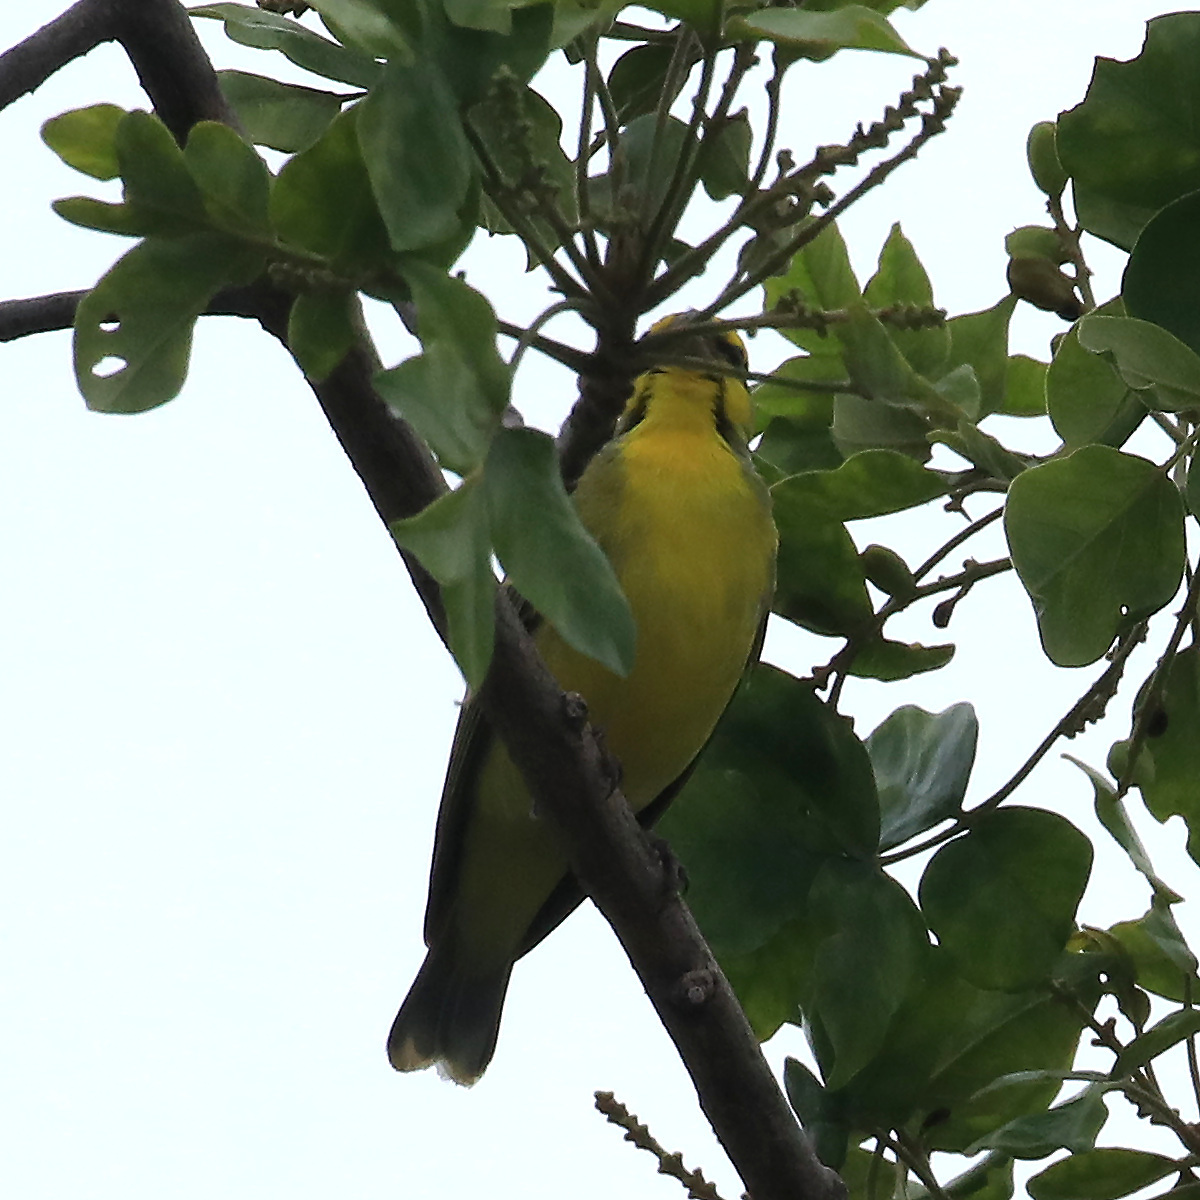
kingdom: Animalia
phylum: Chordata
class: Aves
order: Passeriformes
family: Fringillidae
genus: Crithagra
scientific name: Crithagra mozambica
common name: Yellow-fronted canary
